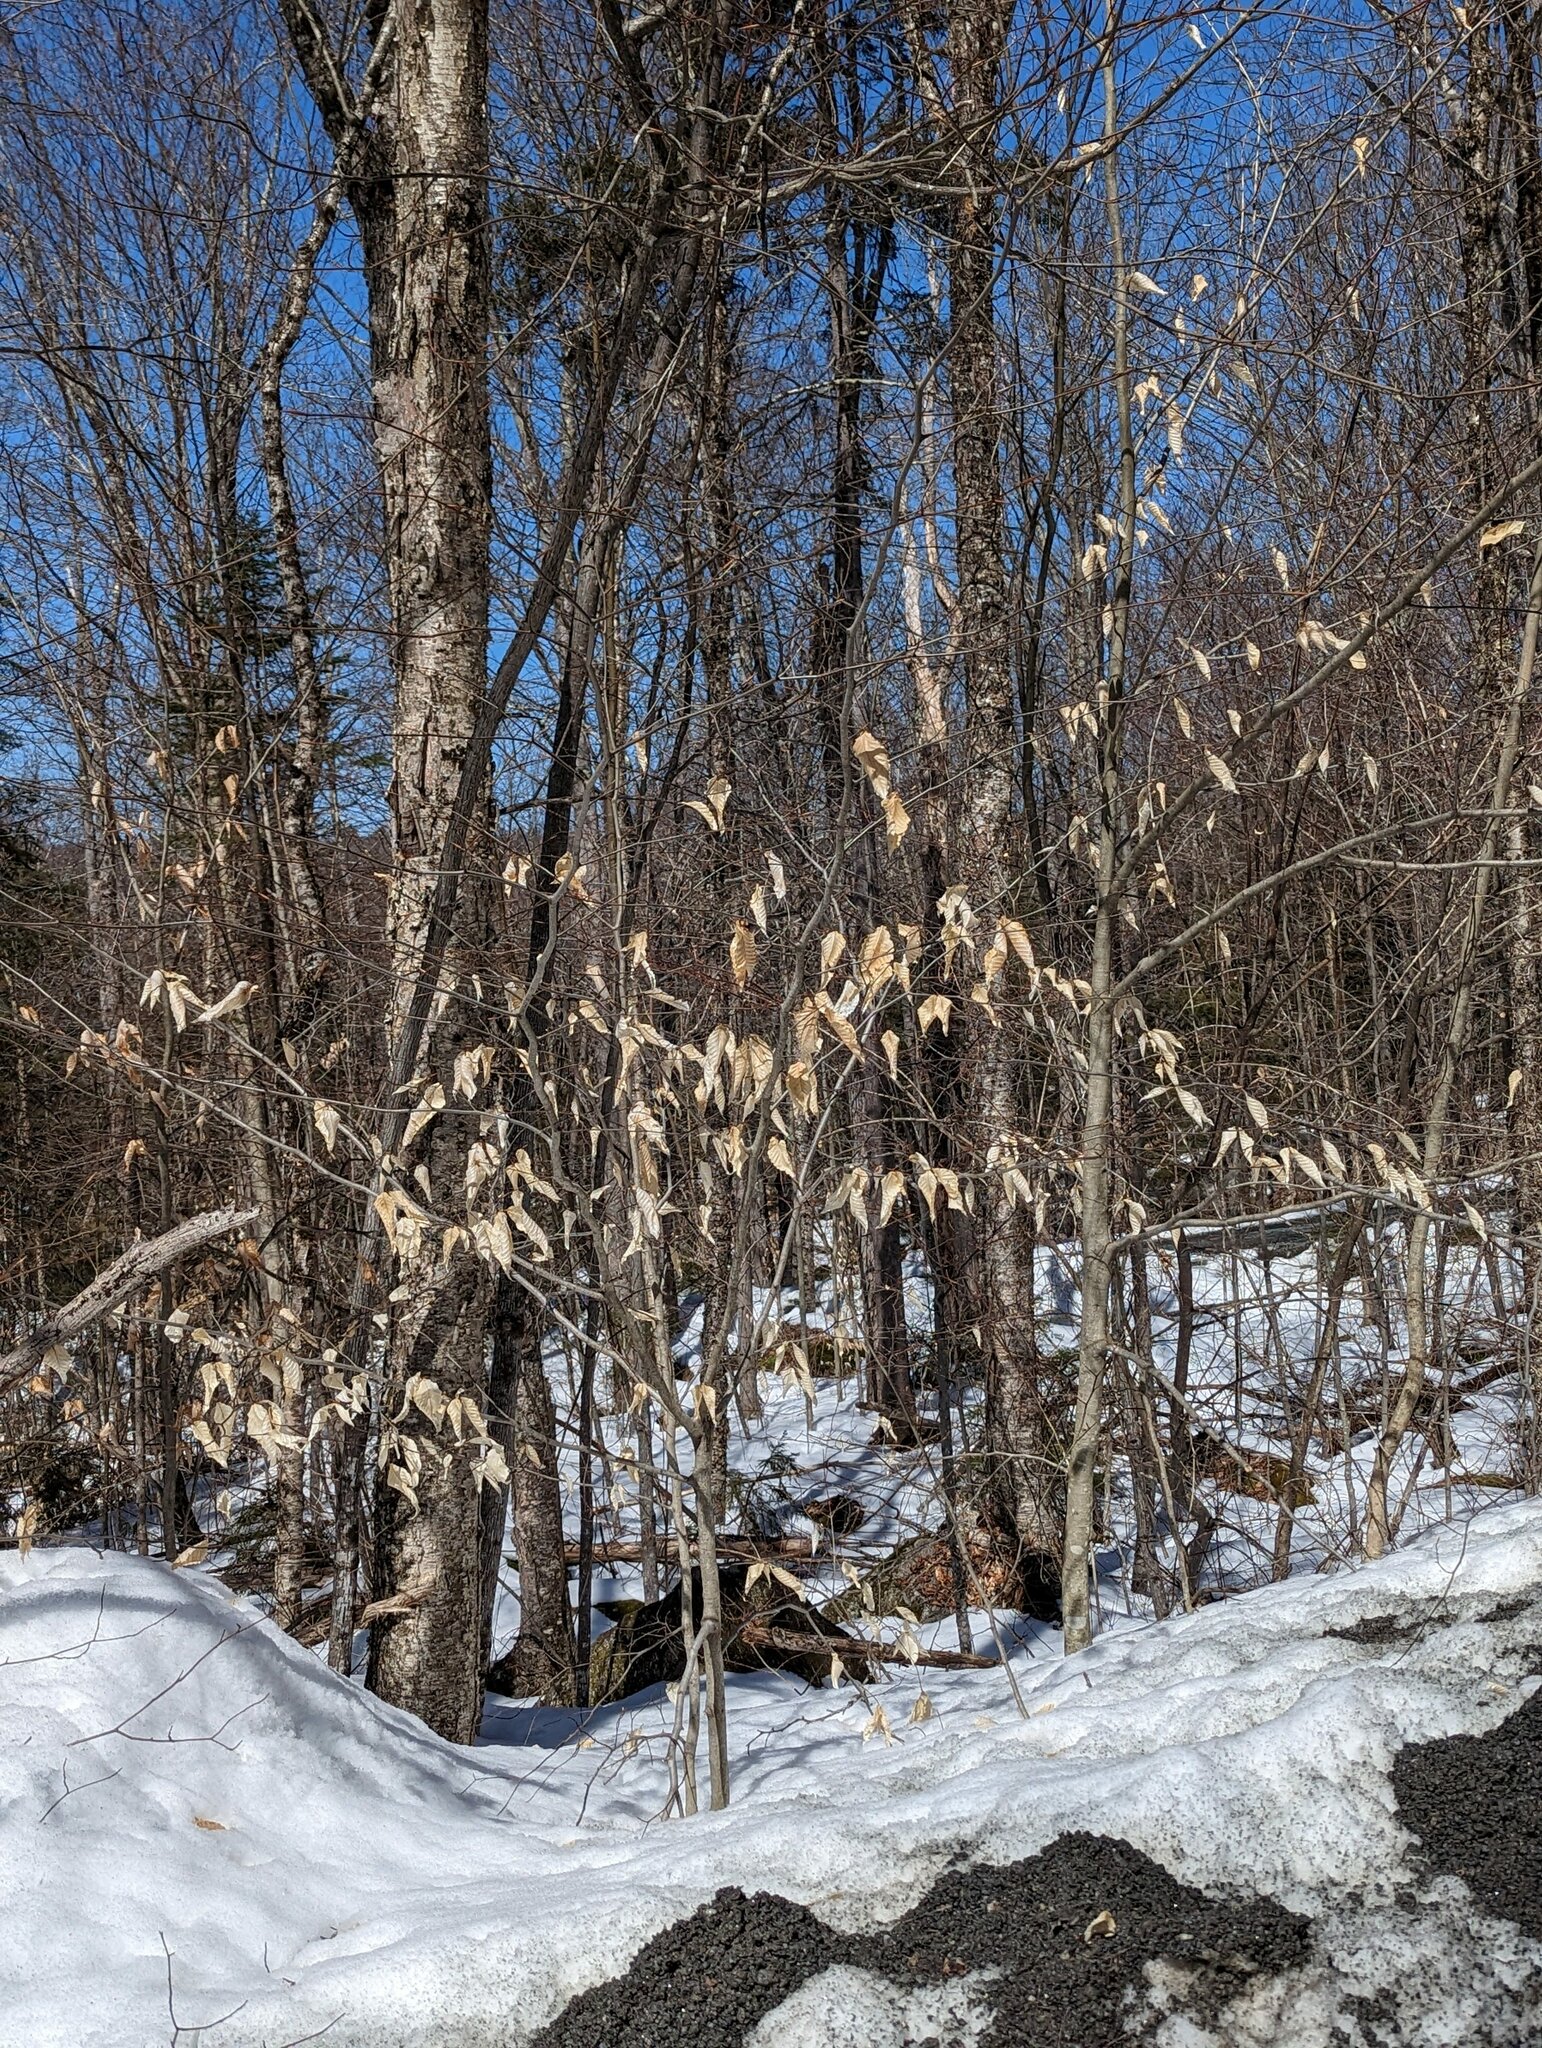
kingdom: Plantae
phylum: Tracheophyta
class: Magnoliopsida
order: Fagales
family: Fagaceae
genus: Fagus
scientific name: Fagus grandifolia
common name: American beech
